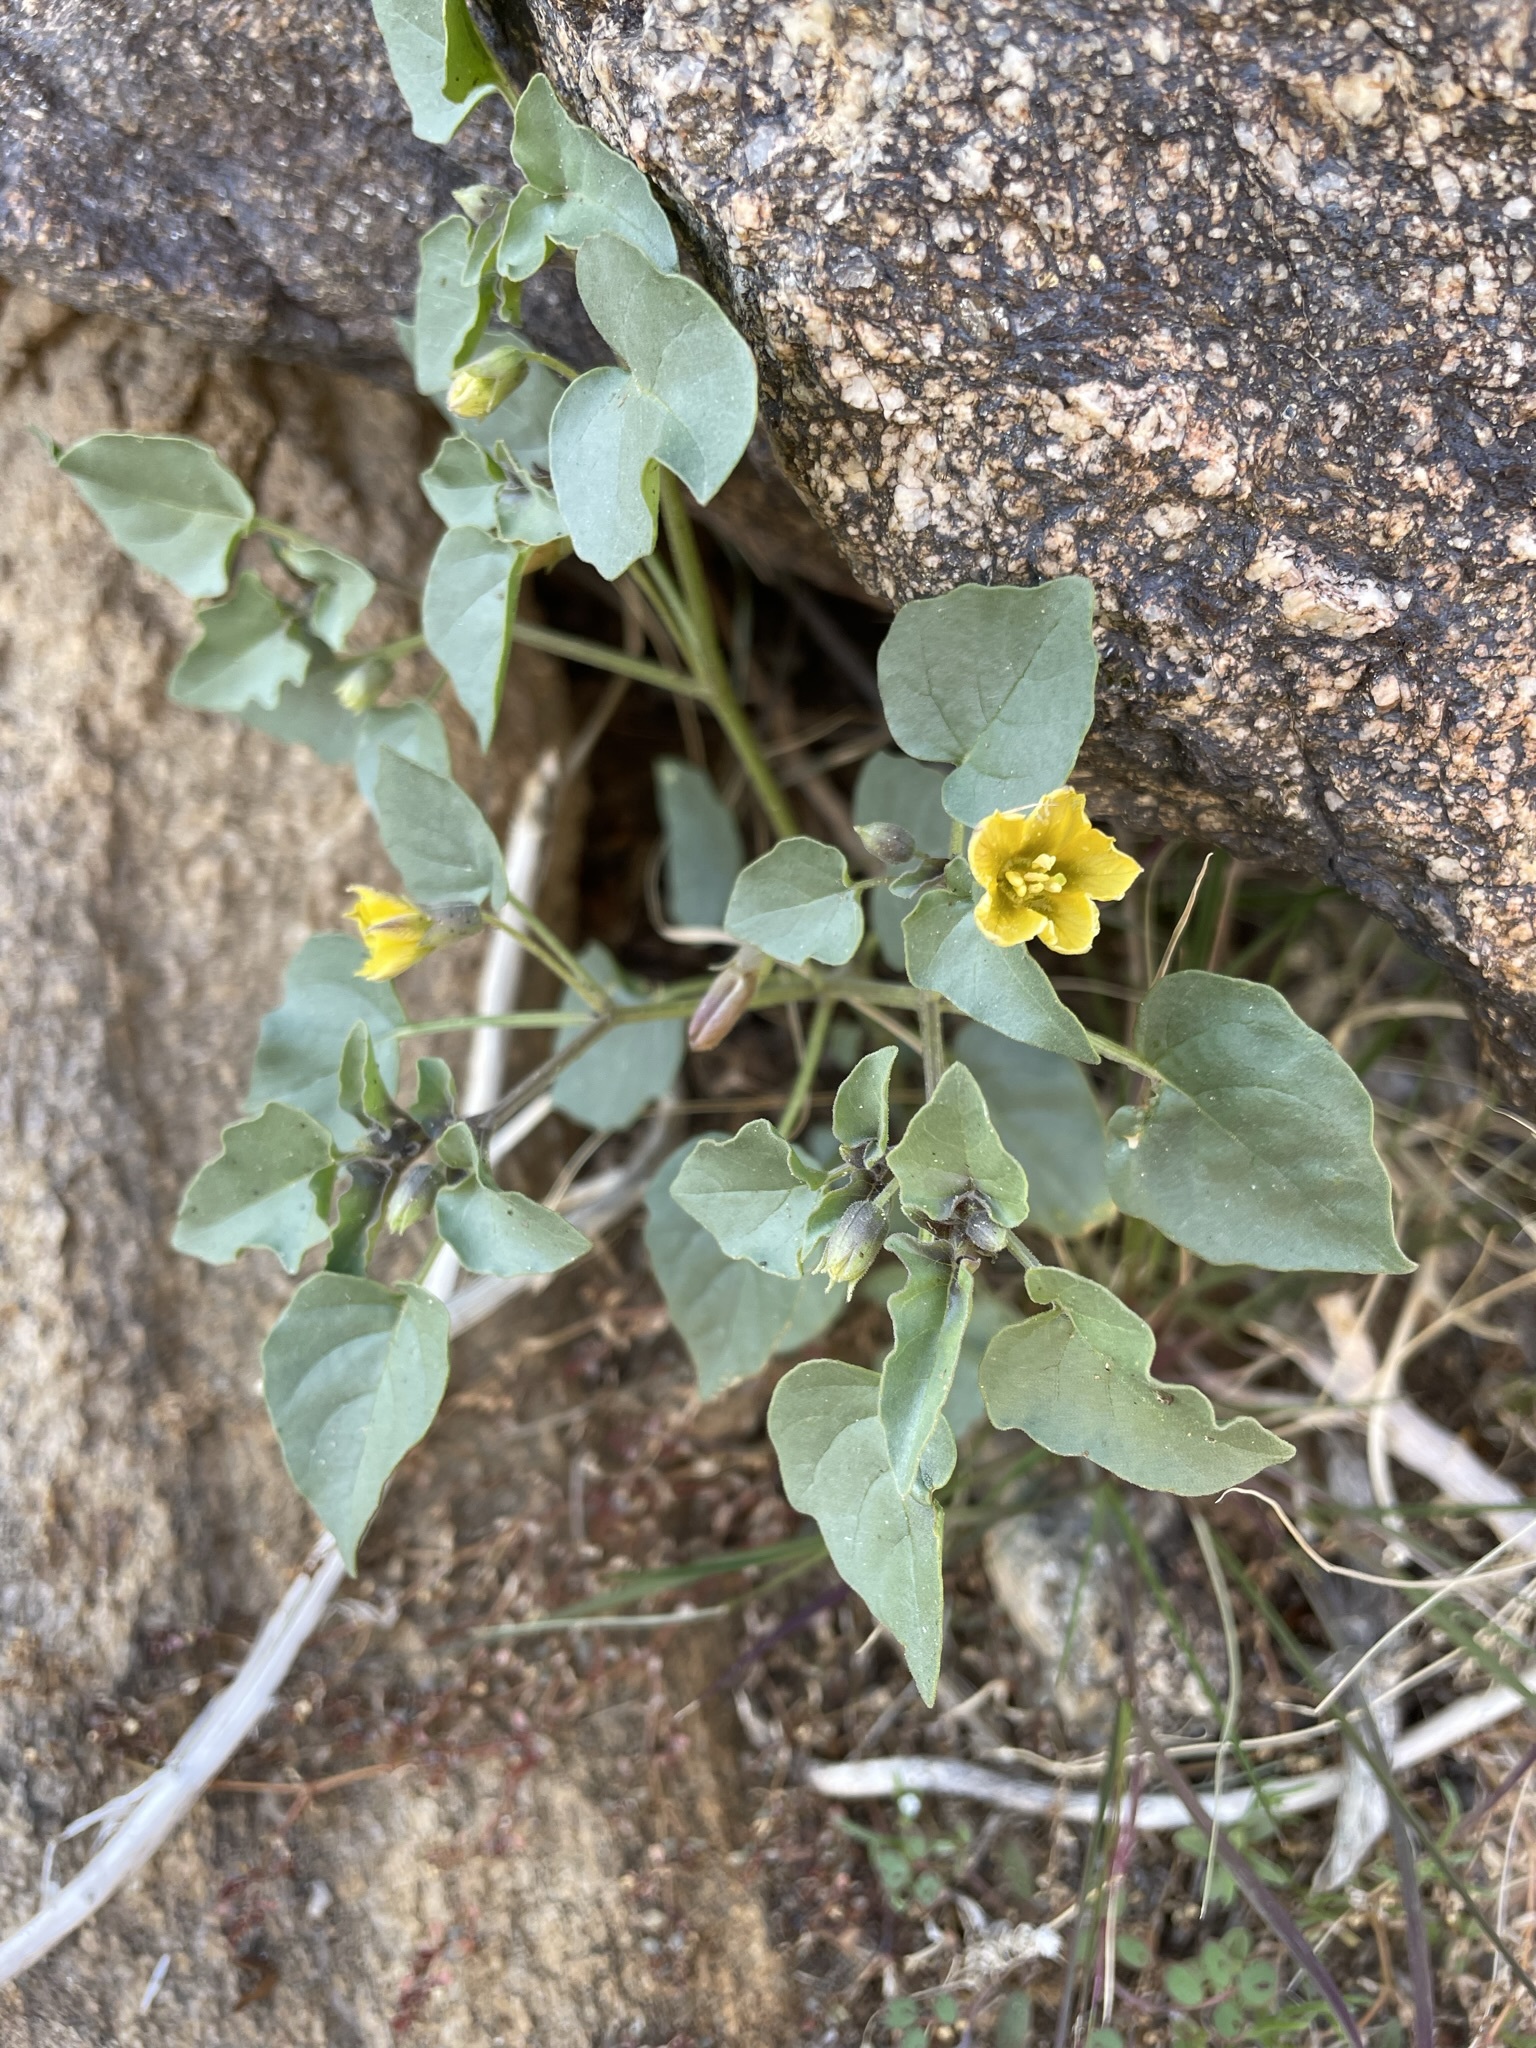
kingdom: Plantae
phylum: Tracheophyta
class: Magnoliopsida
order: Solanales
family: Solanaceae
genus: Physalis
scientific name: Physalis crassifolia
